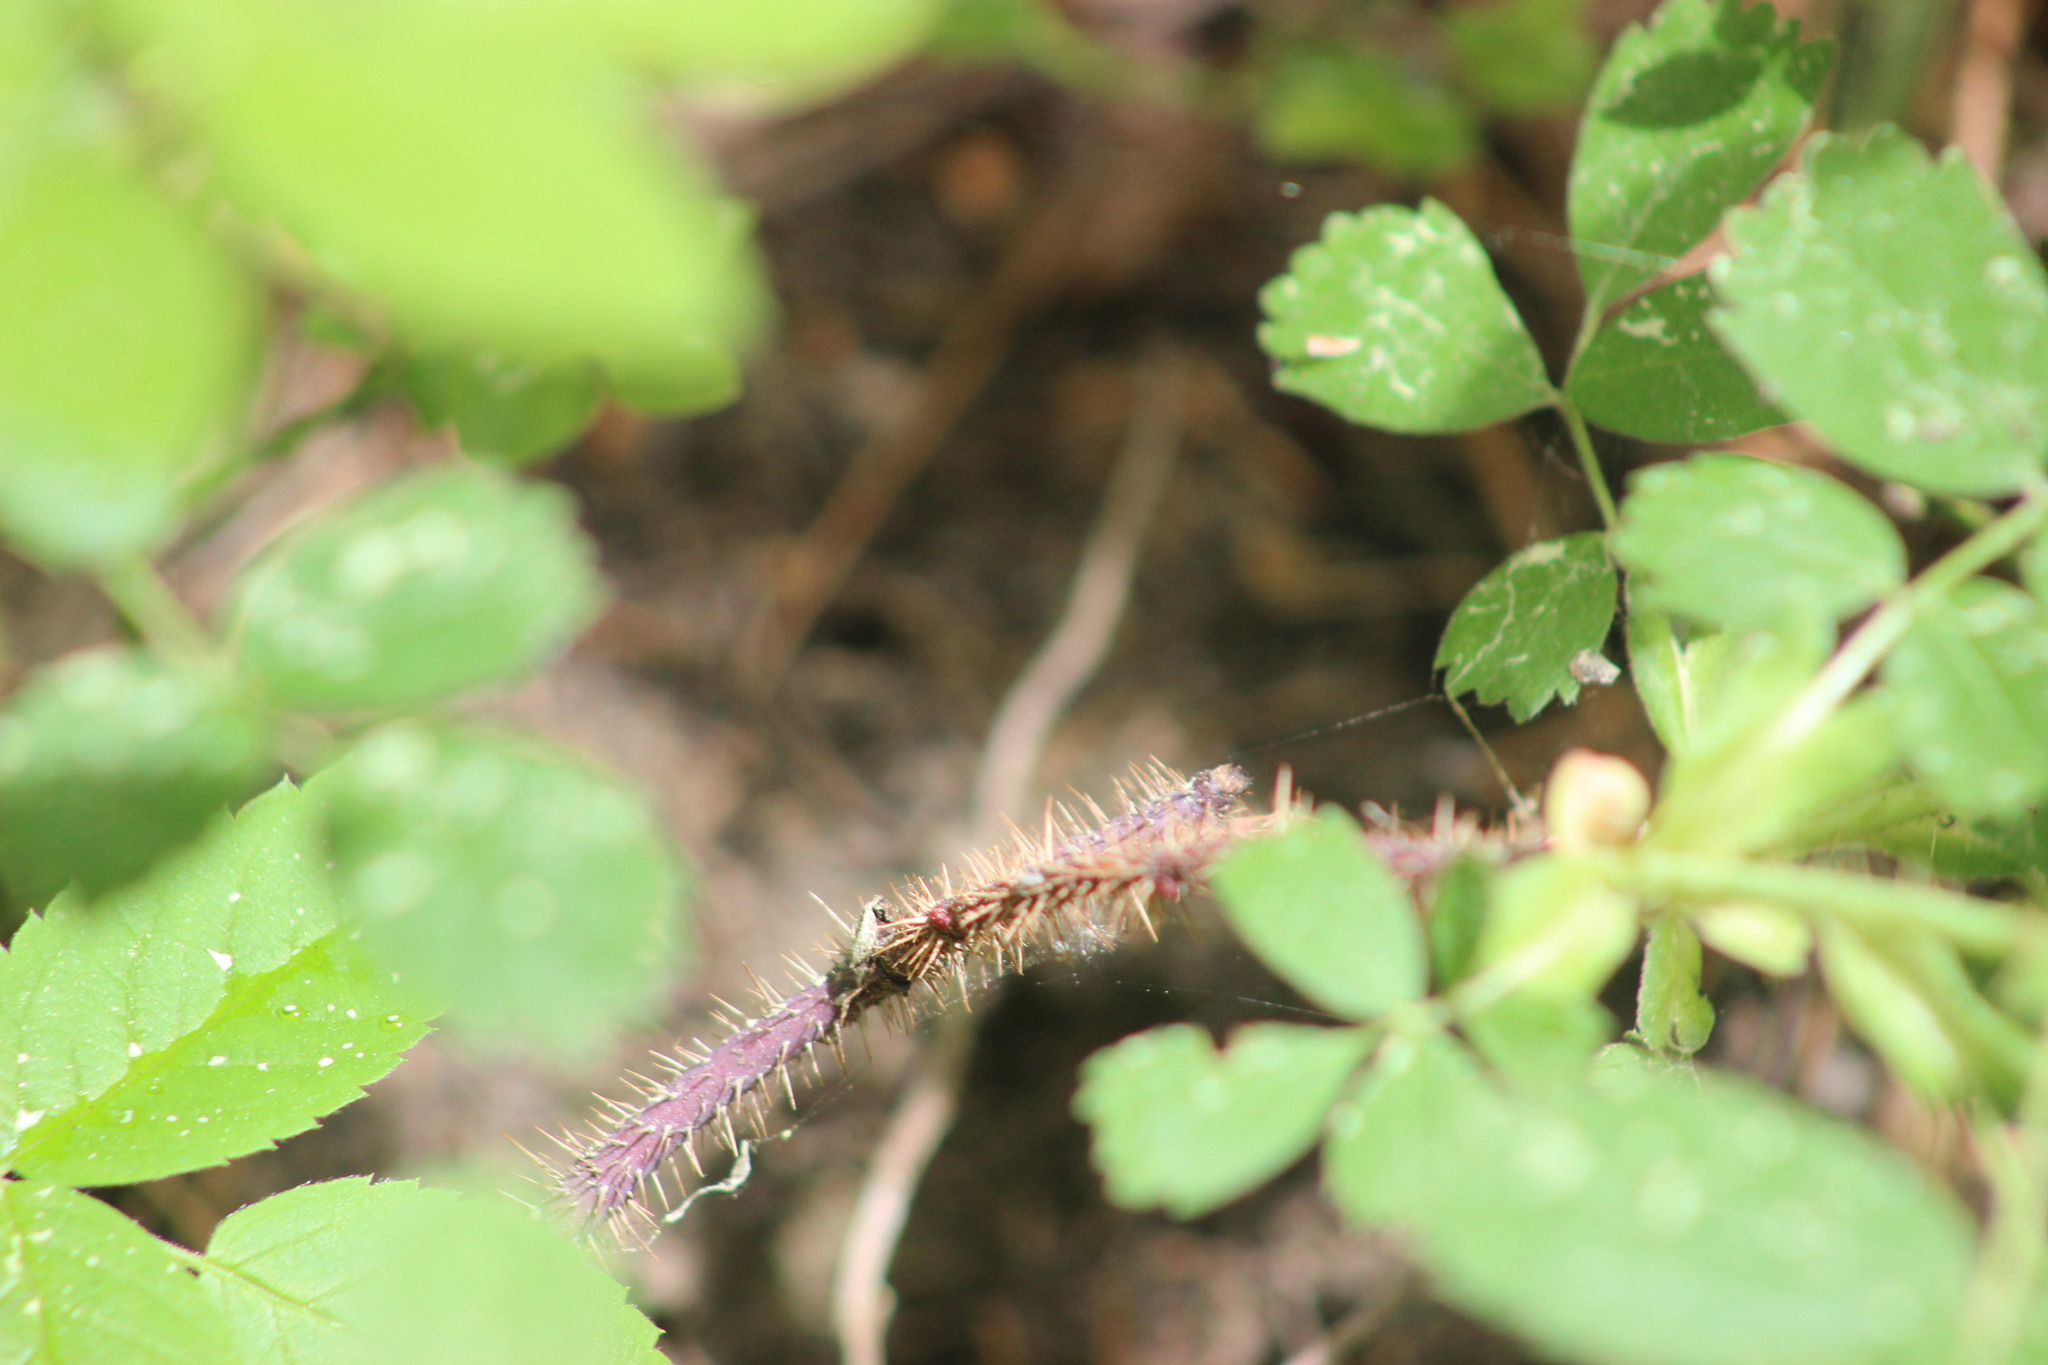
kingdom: Plantae
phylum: Tracheophyta
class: Magnoliopsida
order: Rosales
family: Rosaceae
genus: Rosa
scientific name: Rosa acicularis
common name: Prickly rose
